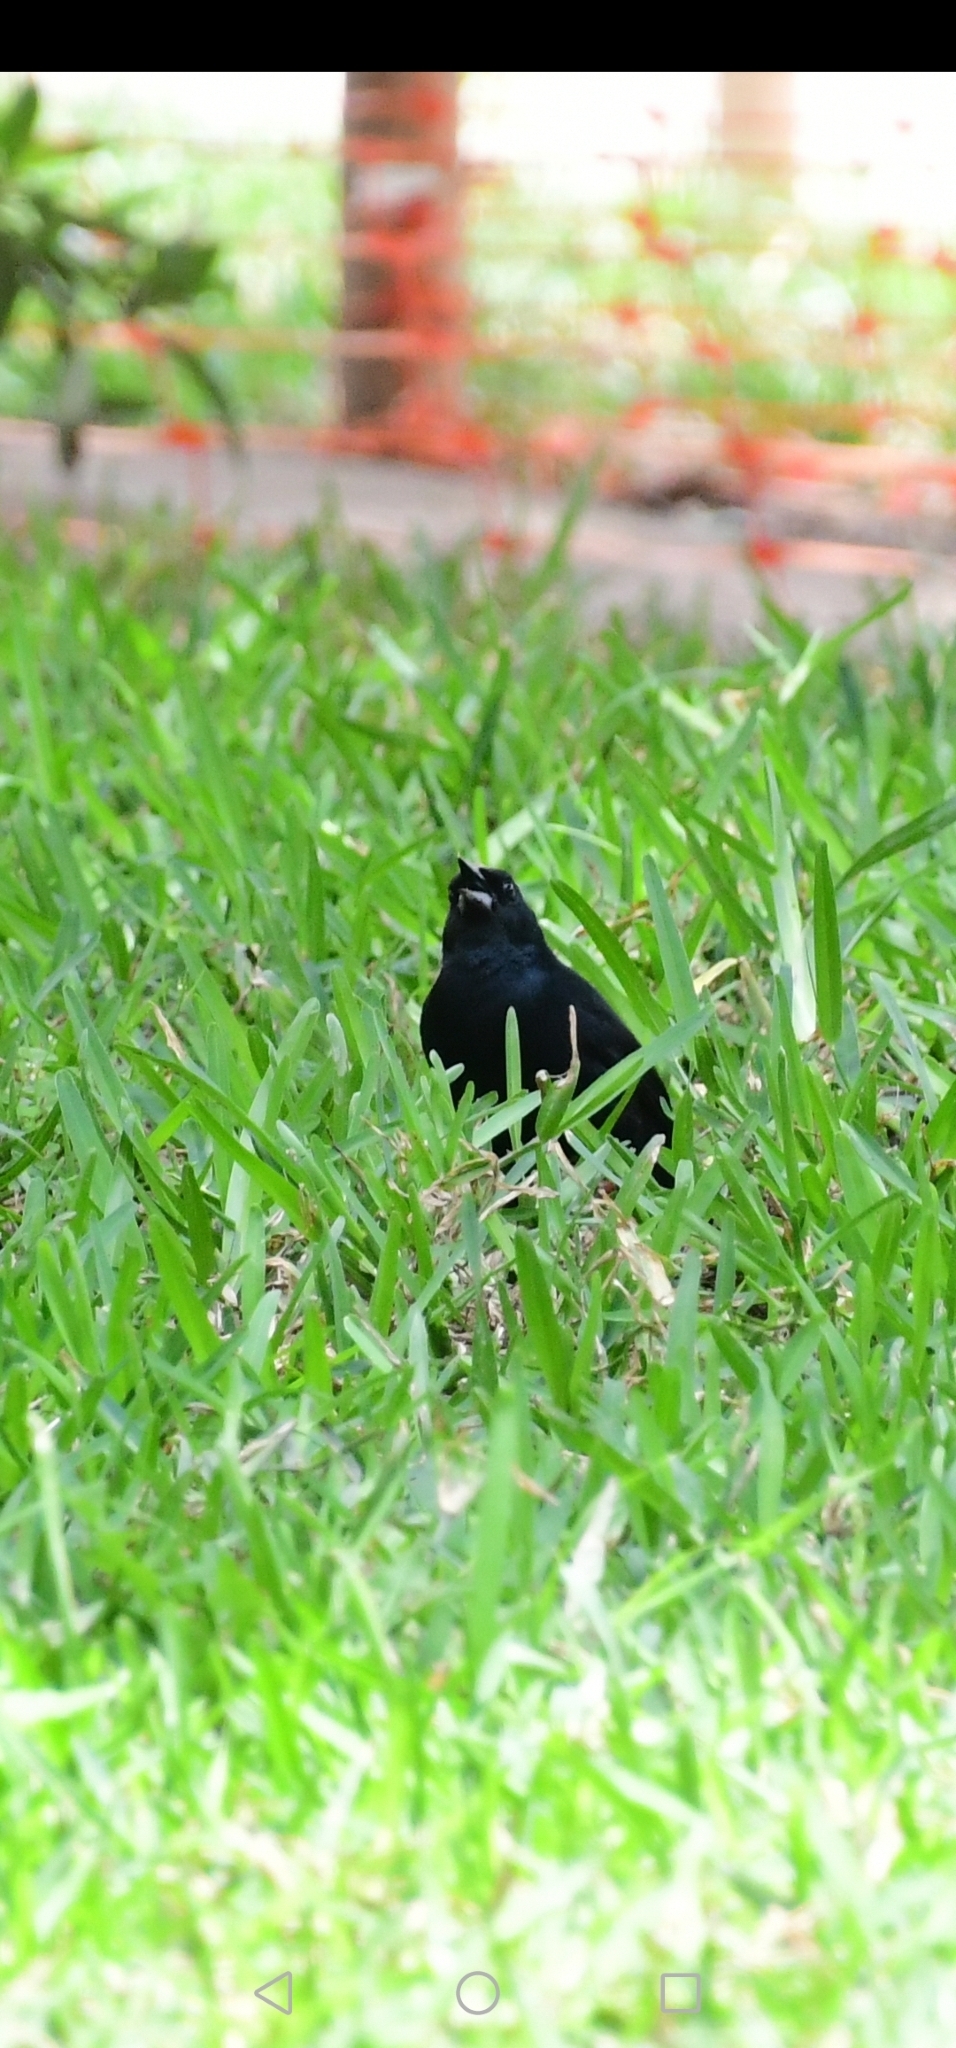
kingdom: Animalia
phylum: Chordata
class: Aves
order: Passeriformes
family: Icteridae
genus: Dives
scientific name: Dives warczewiczi
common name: Scrub blackbird
